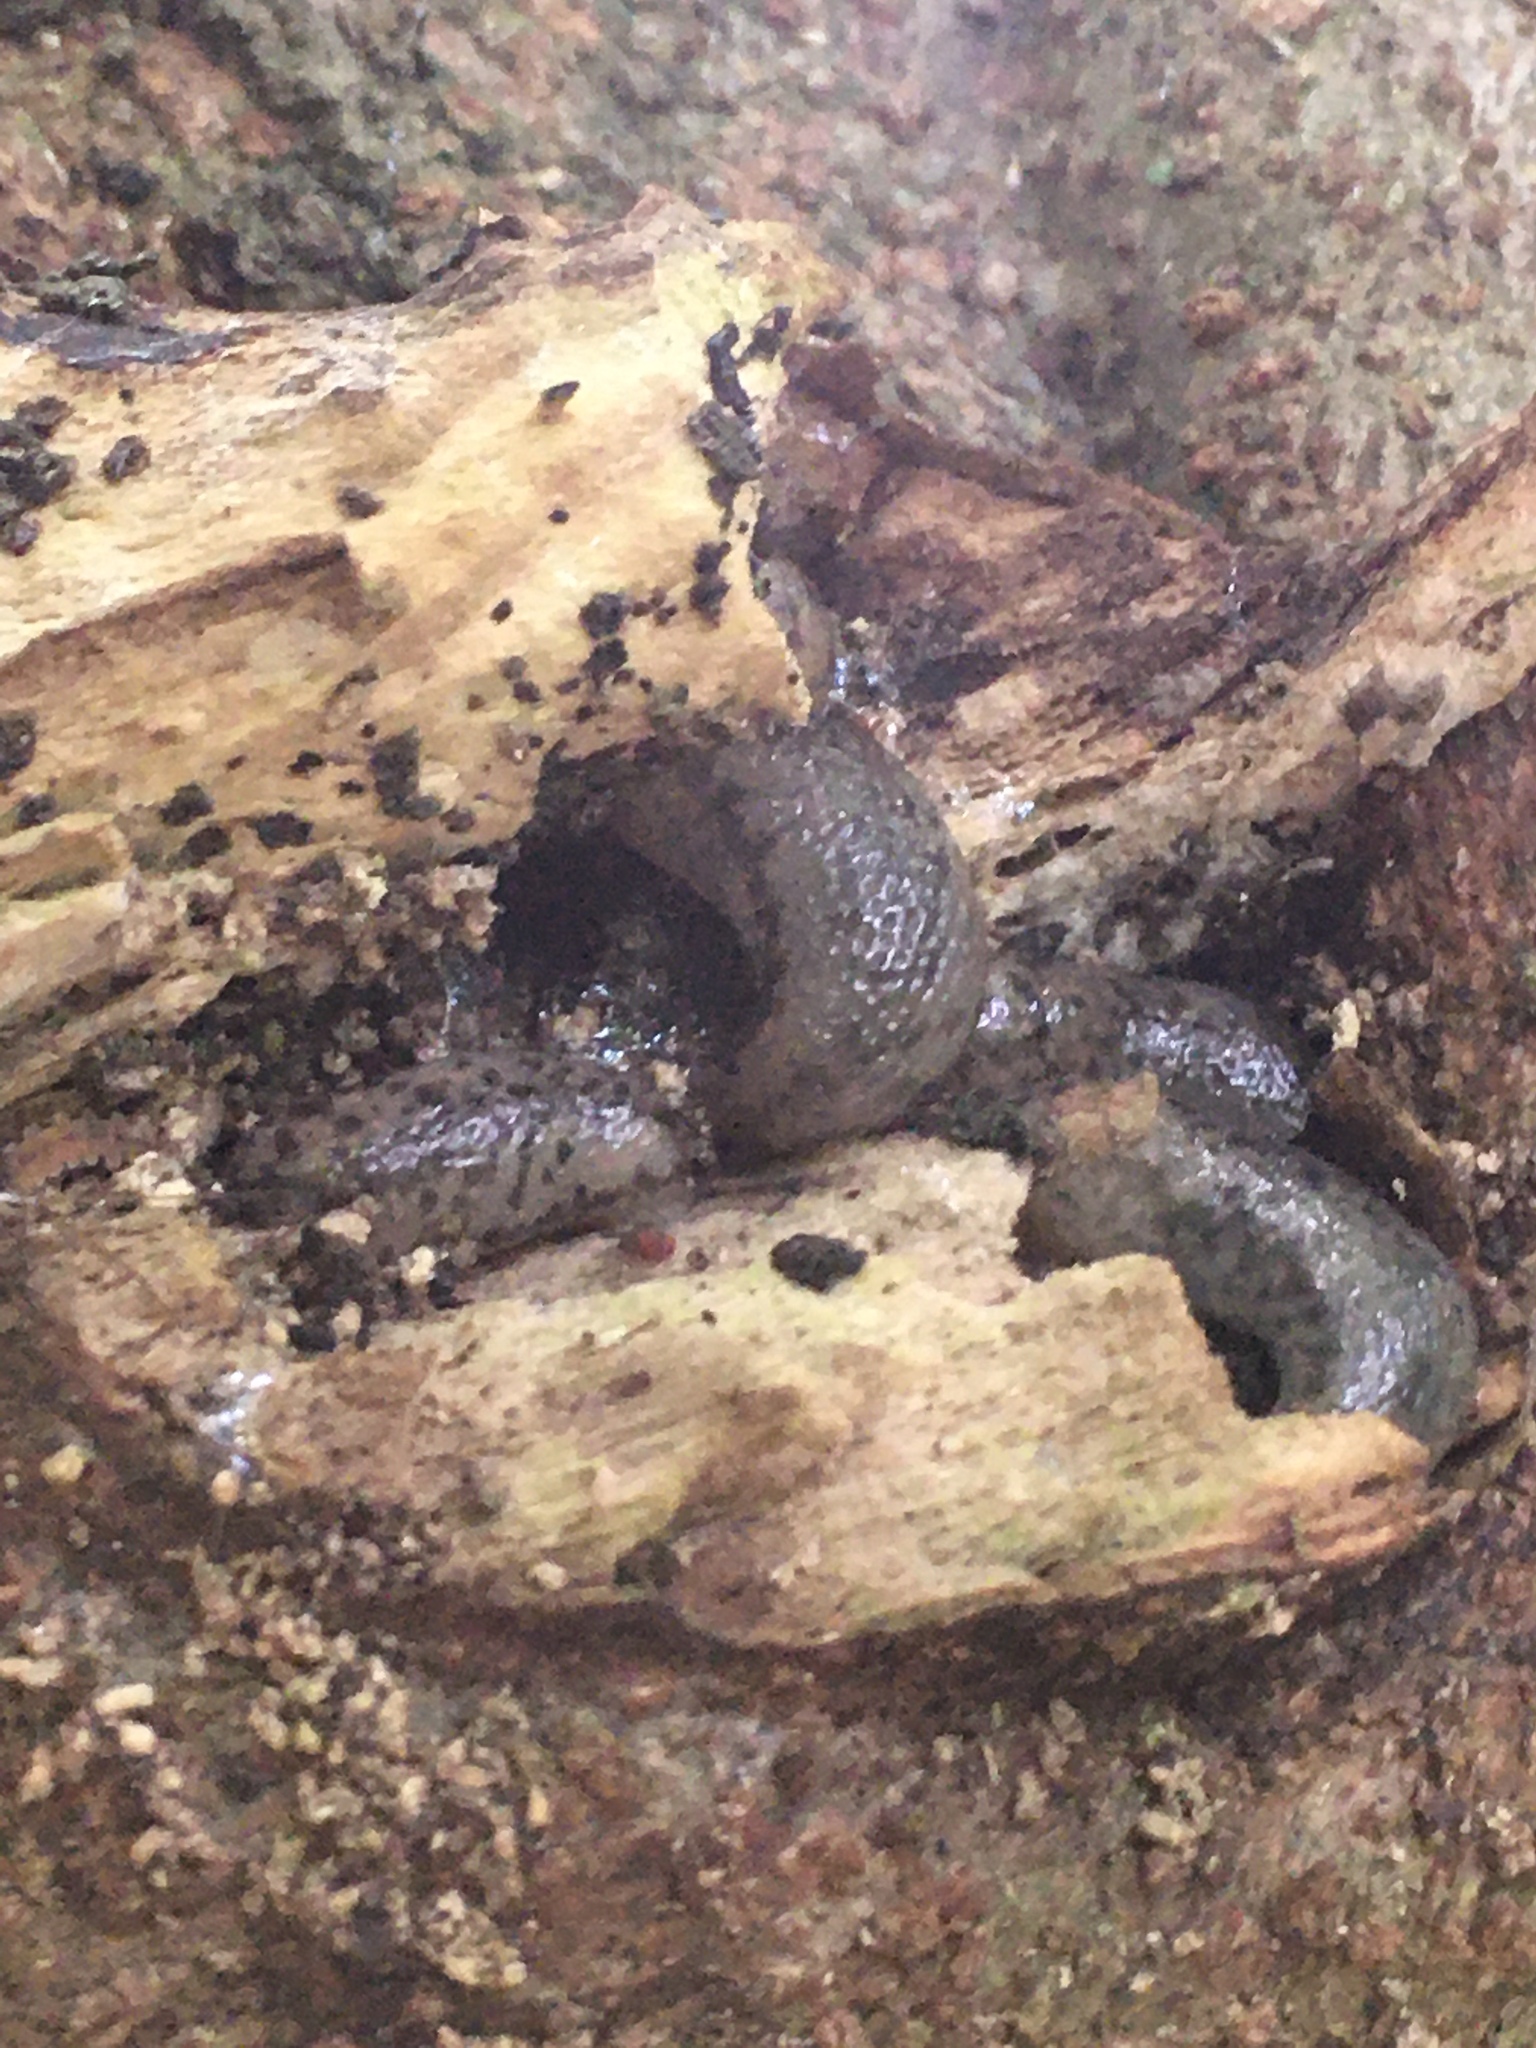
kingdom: Animalia
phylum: Mollusca
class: Gastropoda
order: Stylommatophora
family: Philomycidae
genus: Megapallifera
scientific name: Megapallifera mutabilis
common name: Changeable mantleslug
